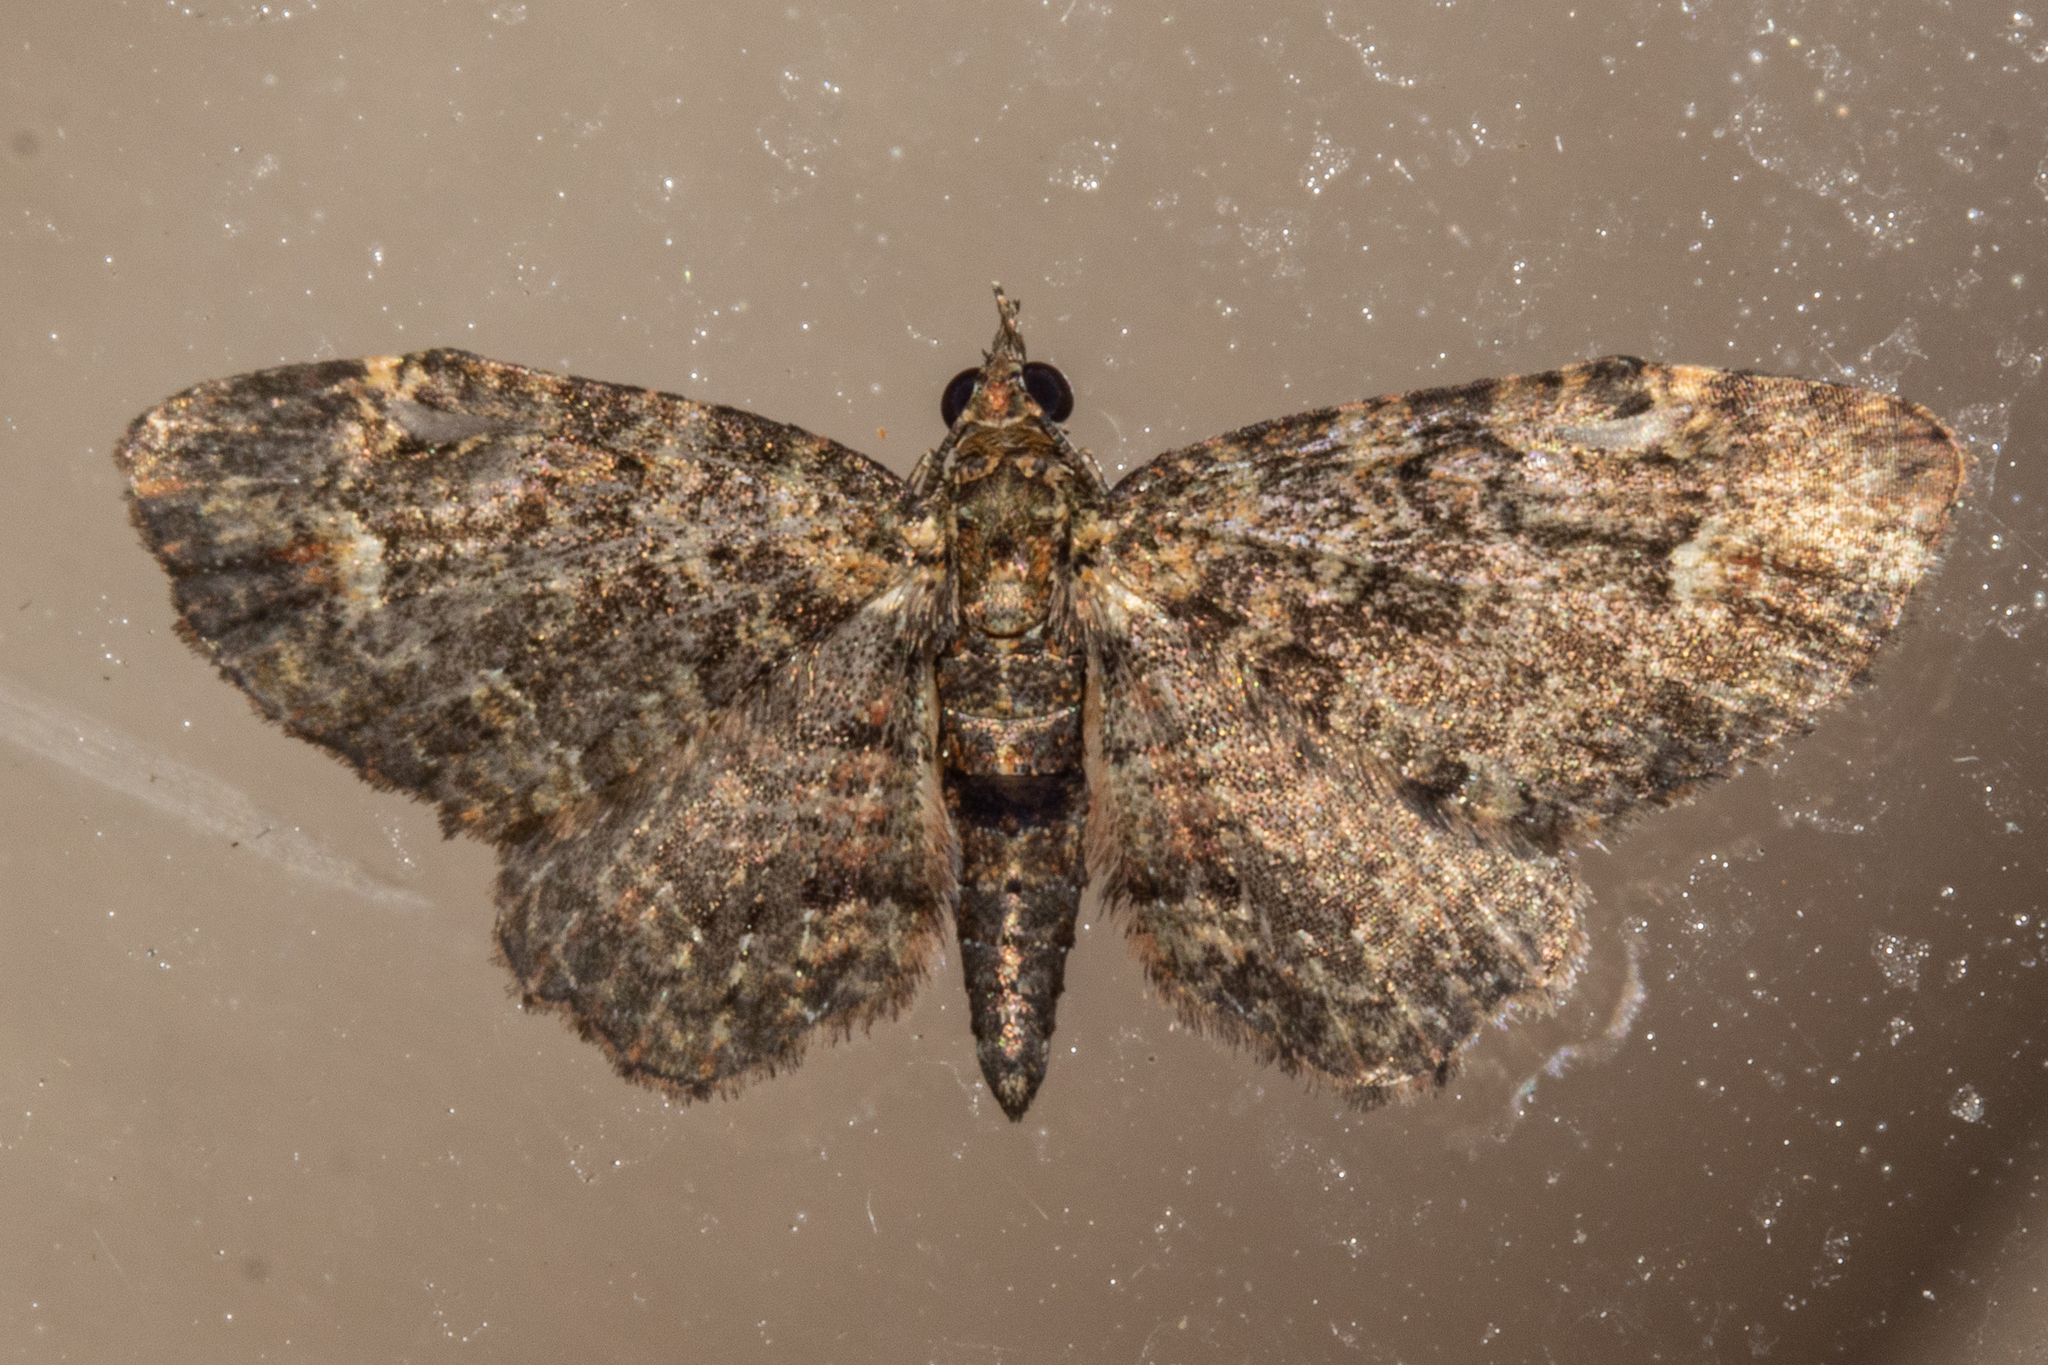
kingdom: Animalia
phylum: Arthropoda
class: Insecta
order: Lepidoptera
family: Geometridae
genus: Pasiphilodes
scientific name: Pasiphilodes testulata
